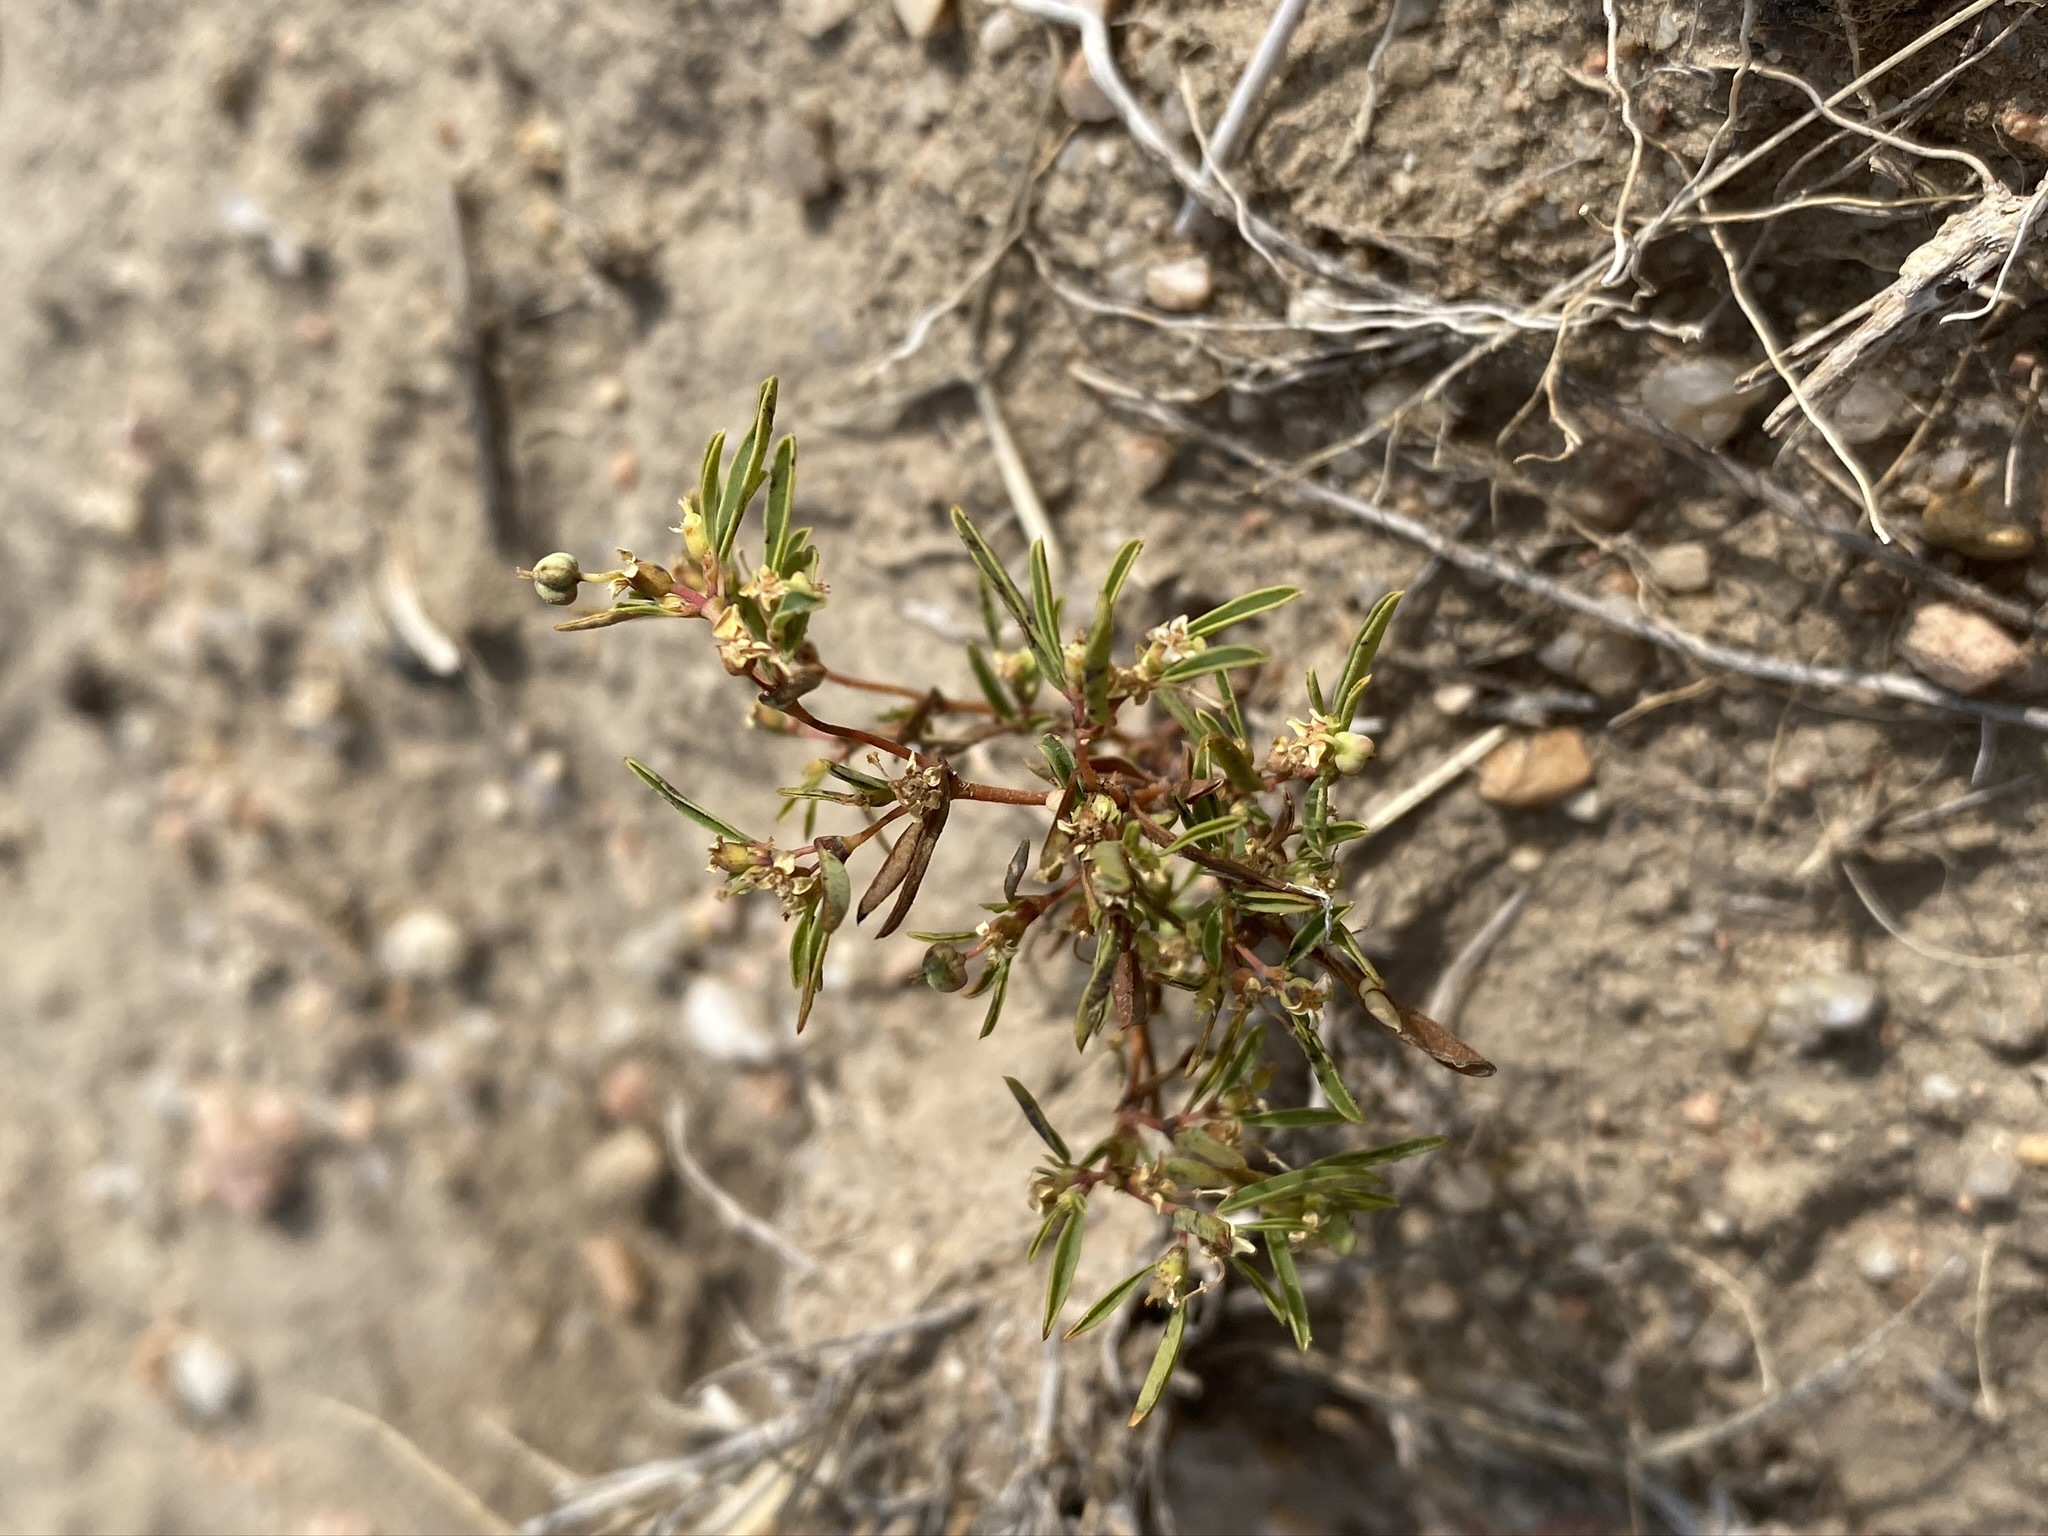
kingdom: Plantae
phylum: Tracheophyta
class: Magnoliopsida
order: Malpighiales
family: Euphorbiaceae
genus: Euphorbia
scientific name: Euphorbia missurica
